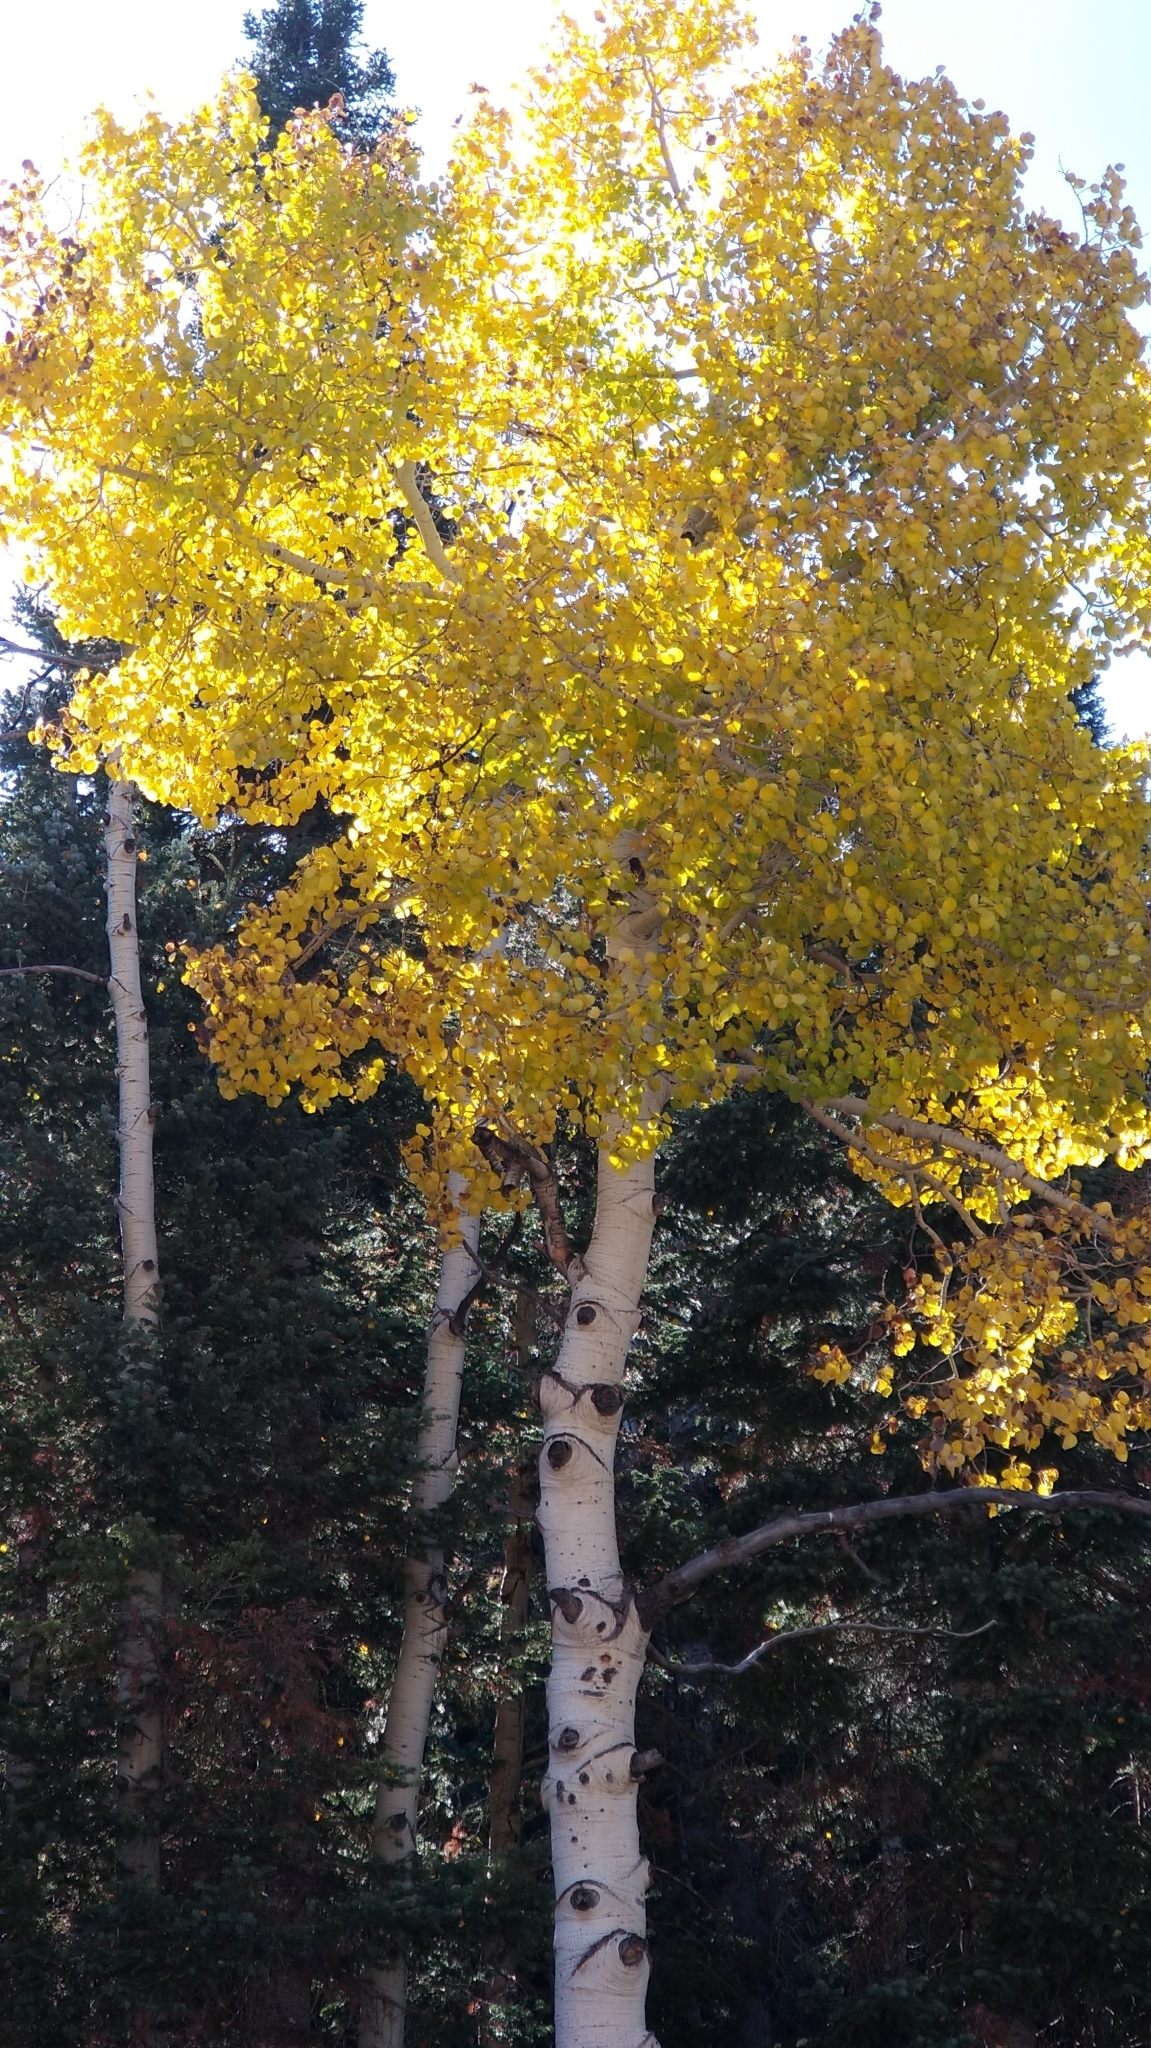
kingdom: Plantae
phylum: Tracheophyta
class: Magnoliopsida
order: Malpighiales
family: Salicaceae
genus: Populus
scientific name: Populus tremuloides
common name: Quaking aspen
